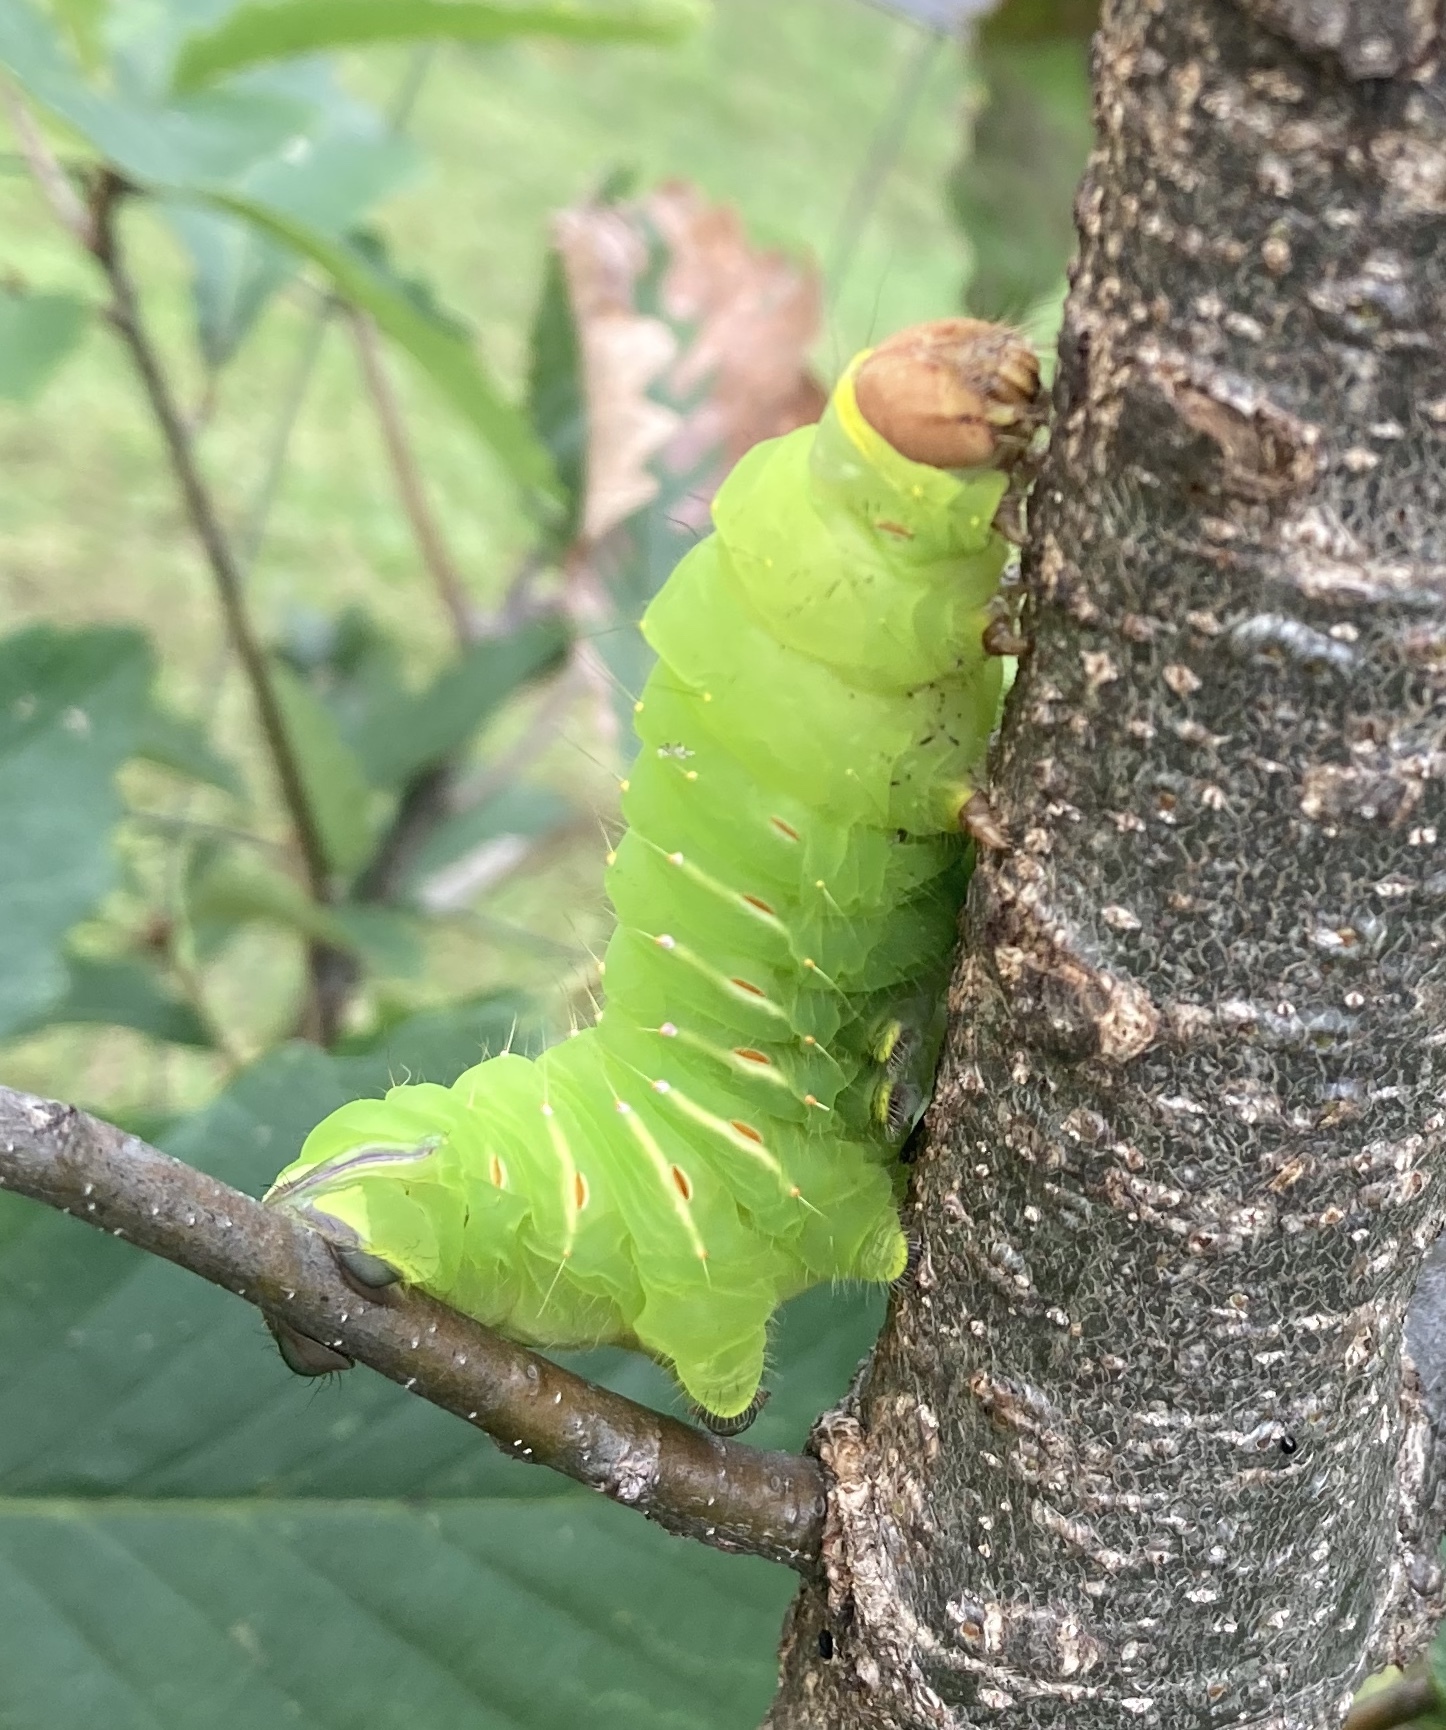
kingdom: Animalia
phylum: Arthropoda
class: Insecta
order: Lepidoptera
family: Saturniidae
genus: Antheraea
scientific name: Antheraea polyphemus
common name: Polyphemus moth
